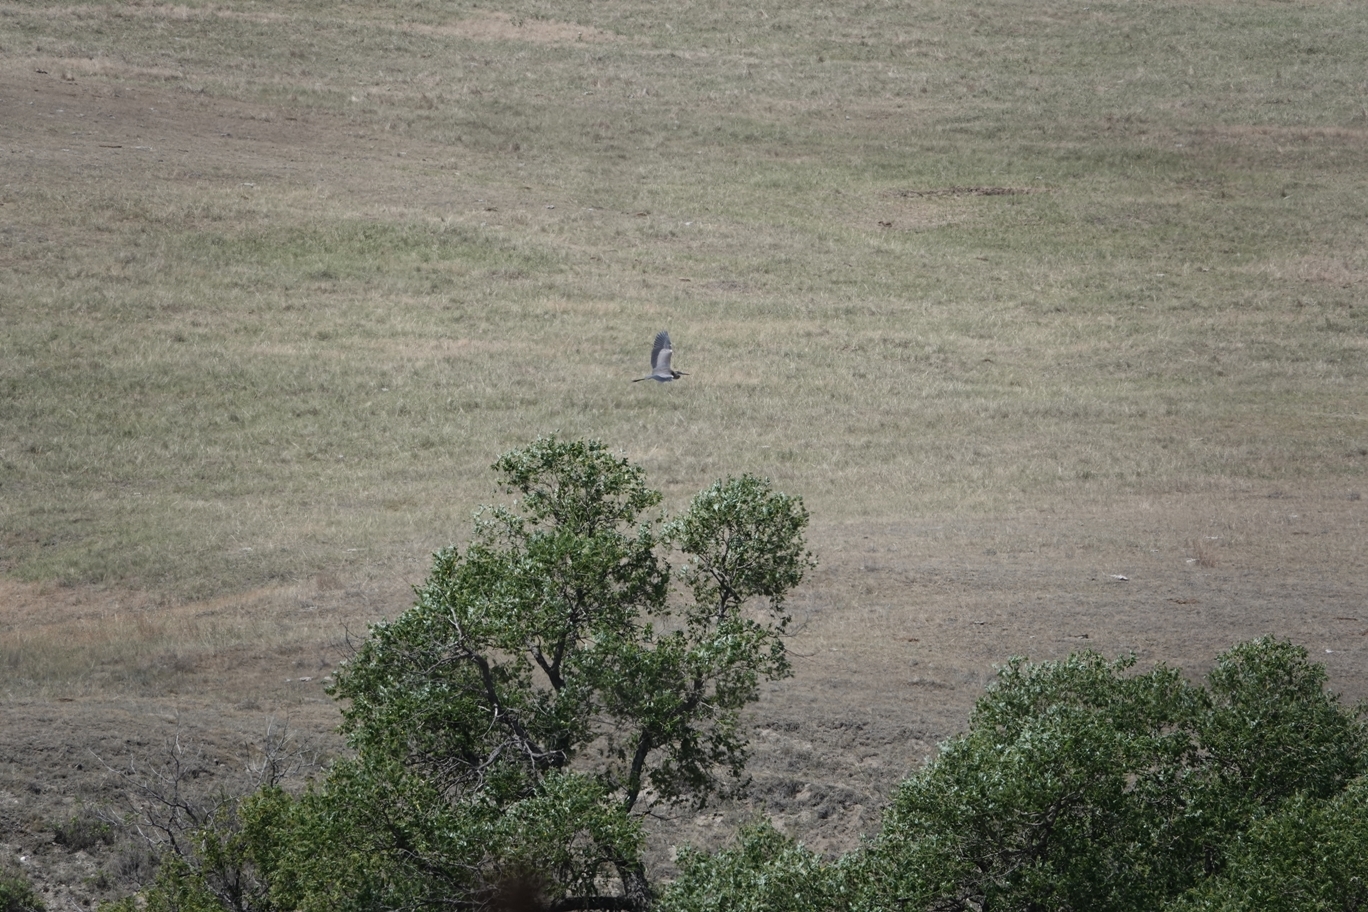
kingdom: Animalia
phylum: Chordata
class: Aves
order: Pelecaniformes
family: Ardeidae
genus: Ardea
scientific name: Ardea herodias
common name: Great blue heron
